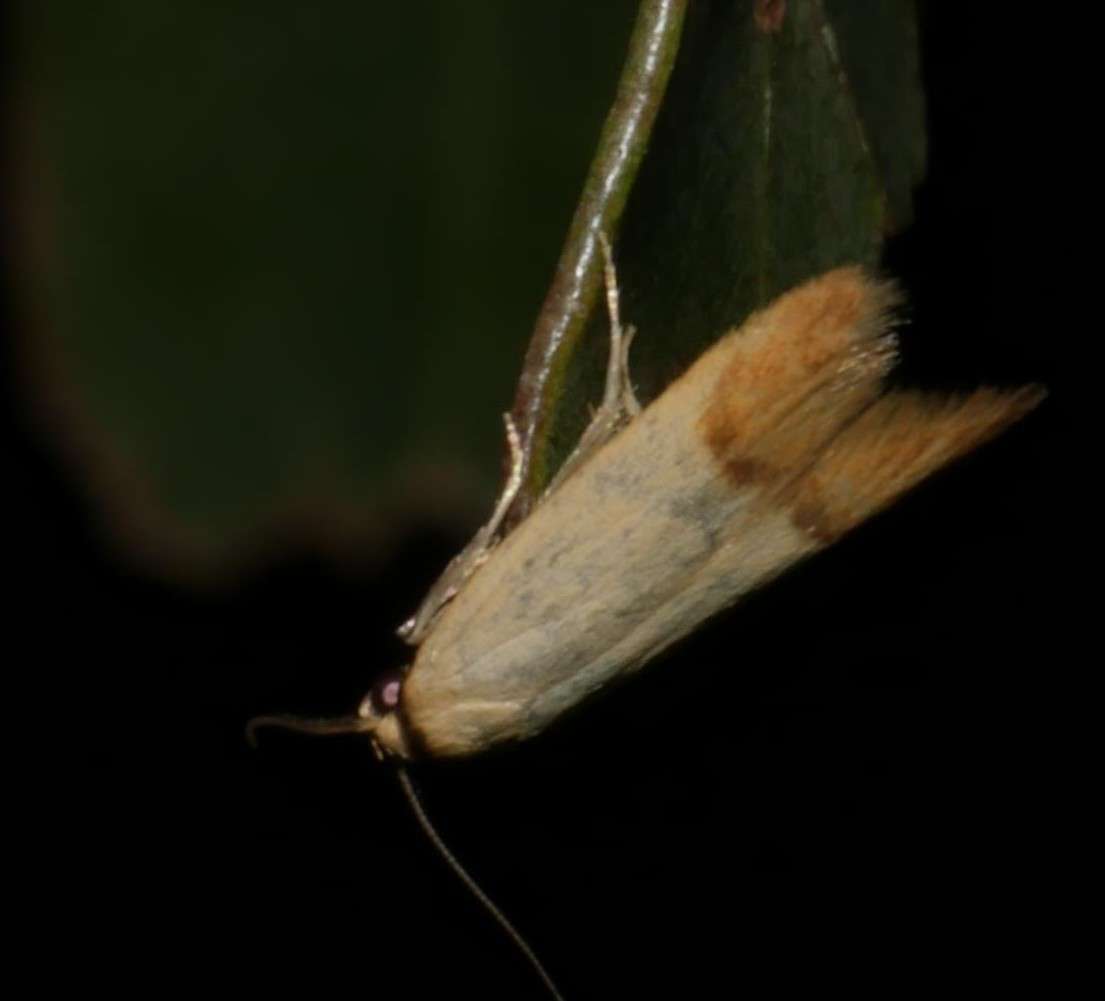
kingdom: Animalia
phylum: Arthropoda
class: Insecta
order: Lepidoptera
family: Oecophoridae
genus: Tachystola
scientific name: Tachystola stenoptera
